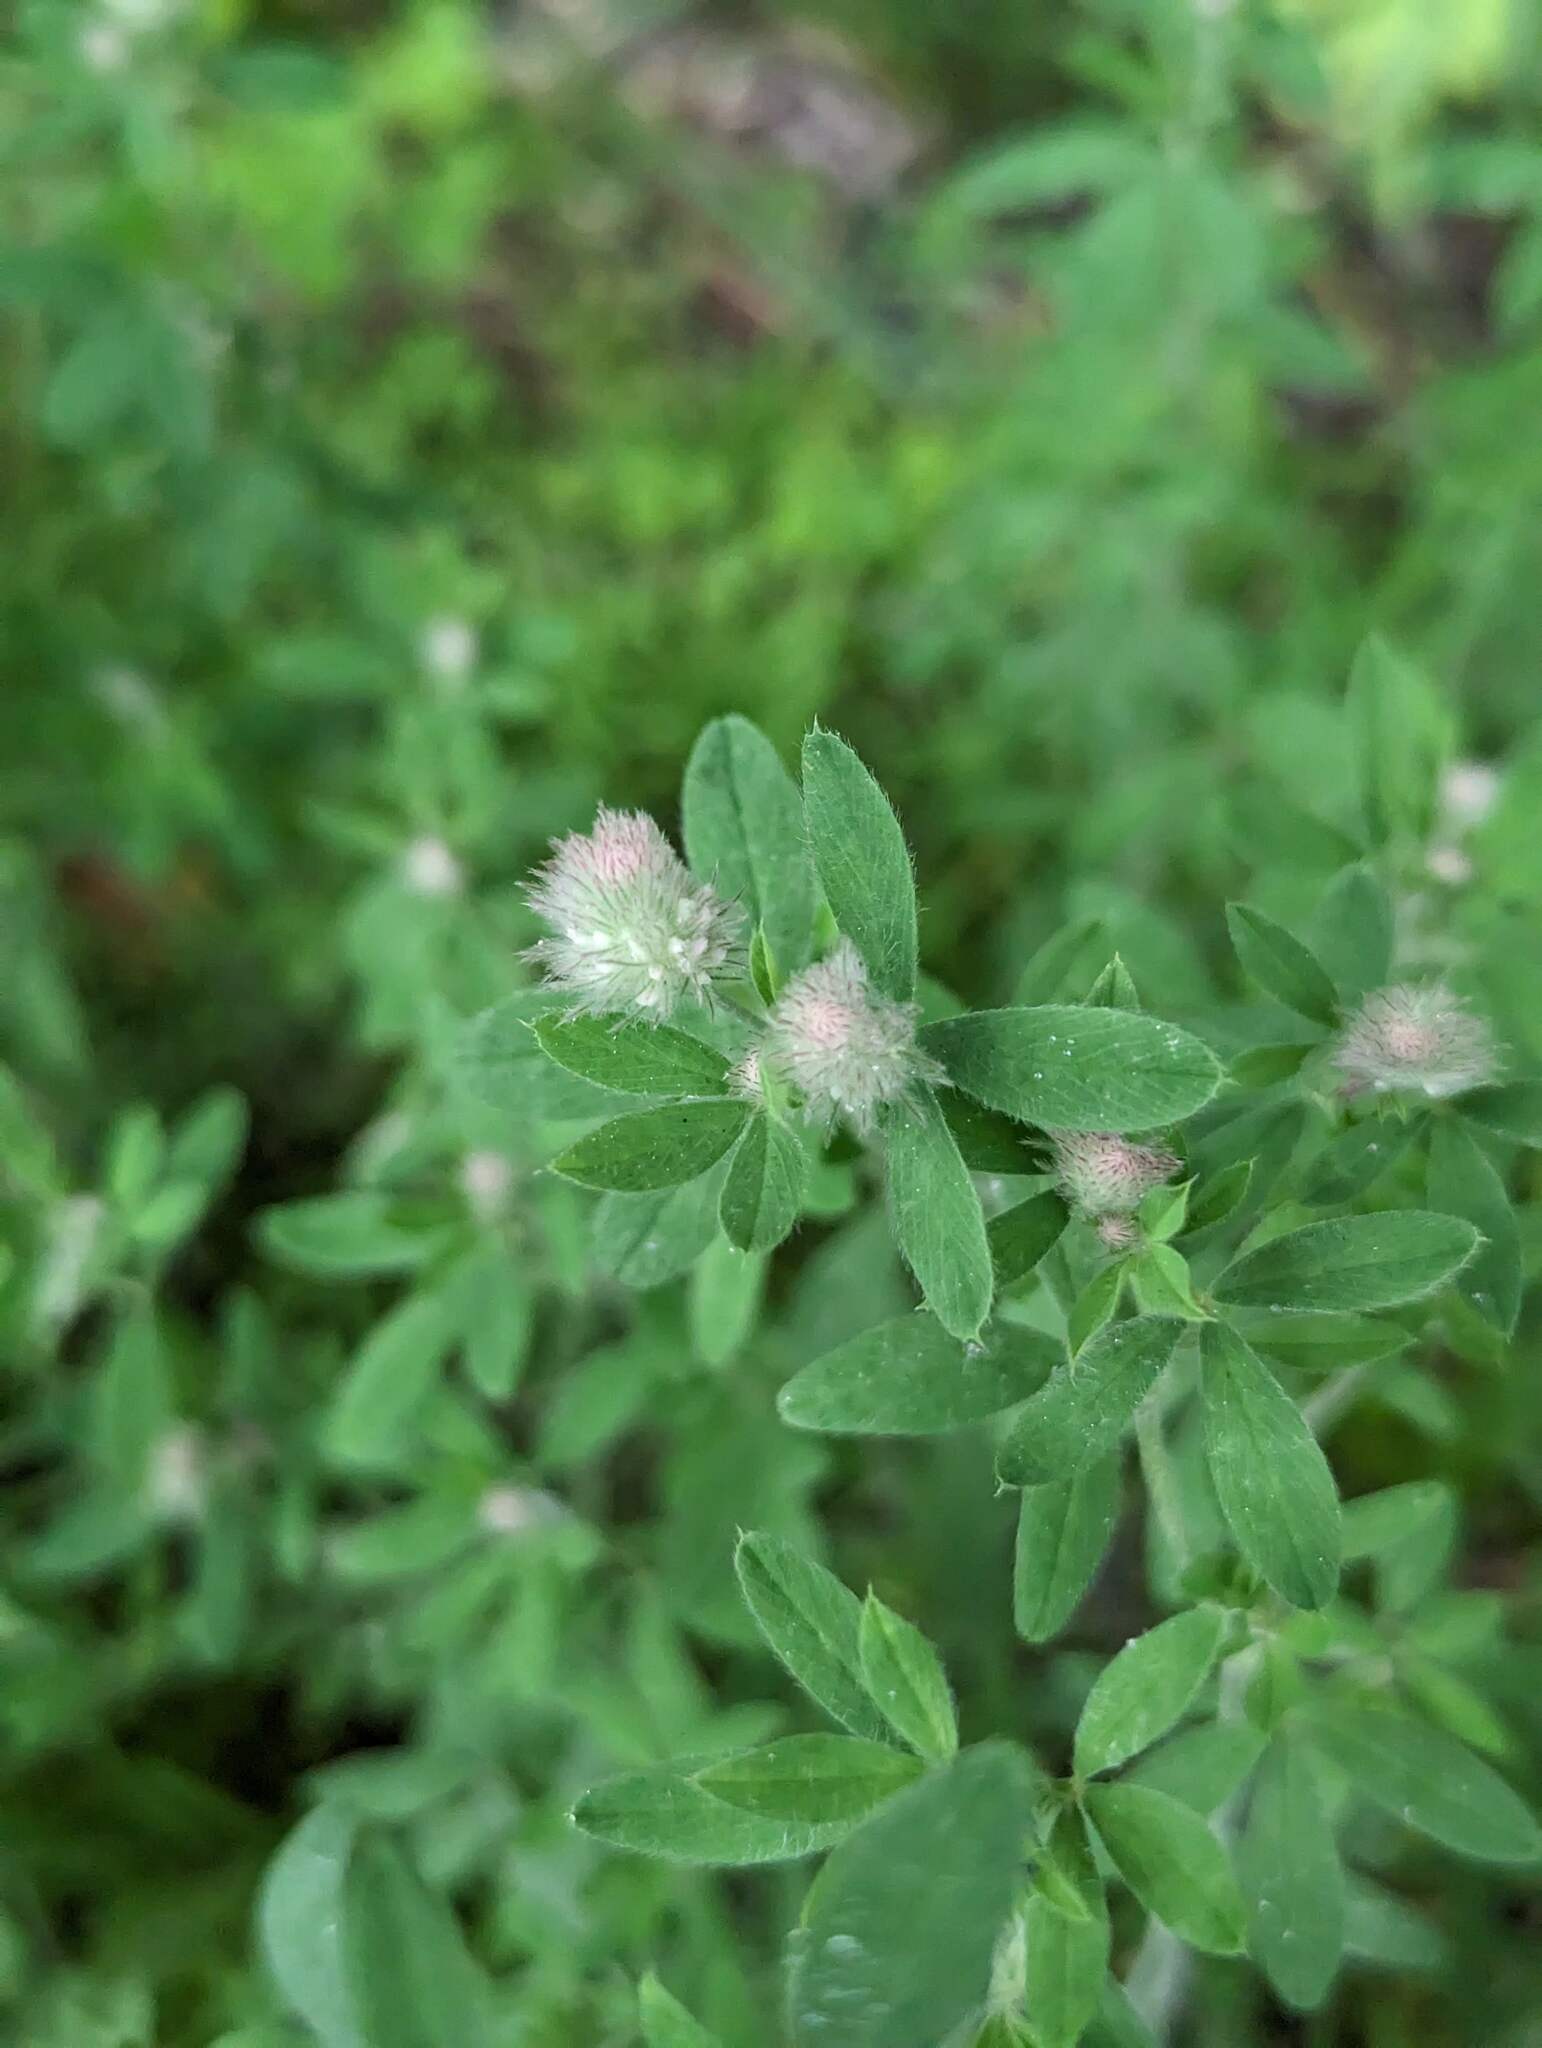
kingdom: Plantae
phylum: Tracheophyta
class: Magnoliopsida
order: Fabales
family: Fabaceae
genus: Trifolium
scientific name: Trifolium arvense
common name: Hare's-foot clover
